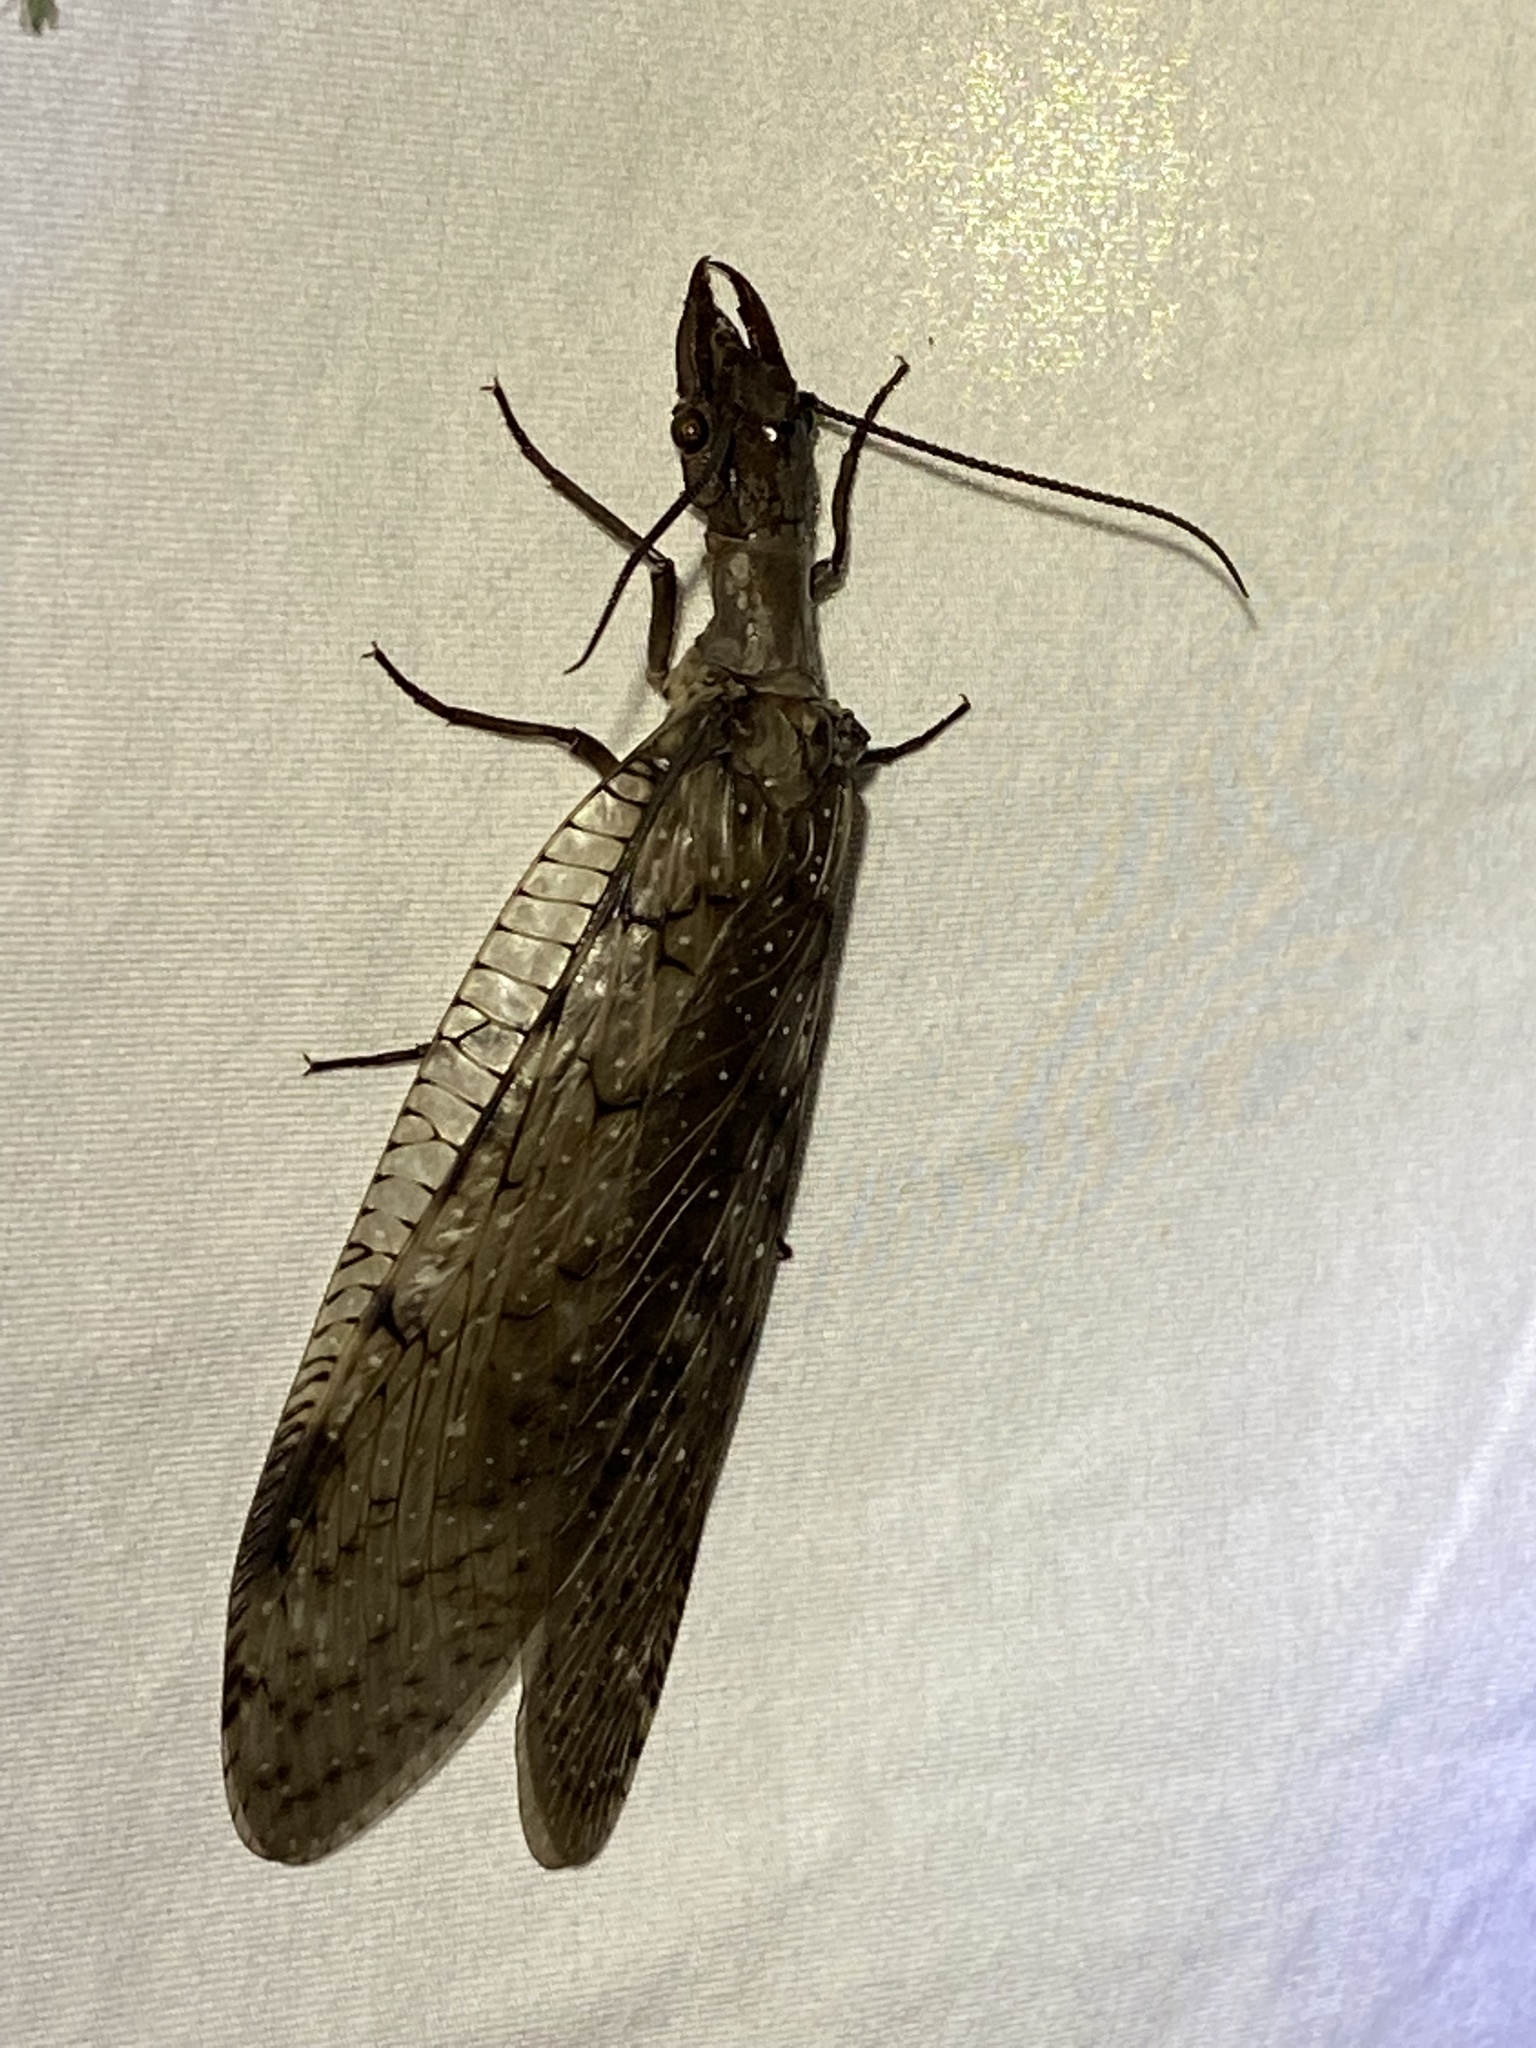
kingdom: Animalia
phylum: Arthropoda
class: Insecta
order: Megaloptera
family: Corydalidae
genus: Corydalus
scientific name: Corydalus cornutus
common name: Dobsonfly
